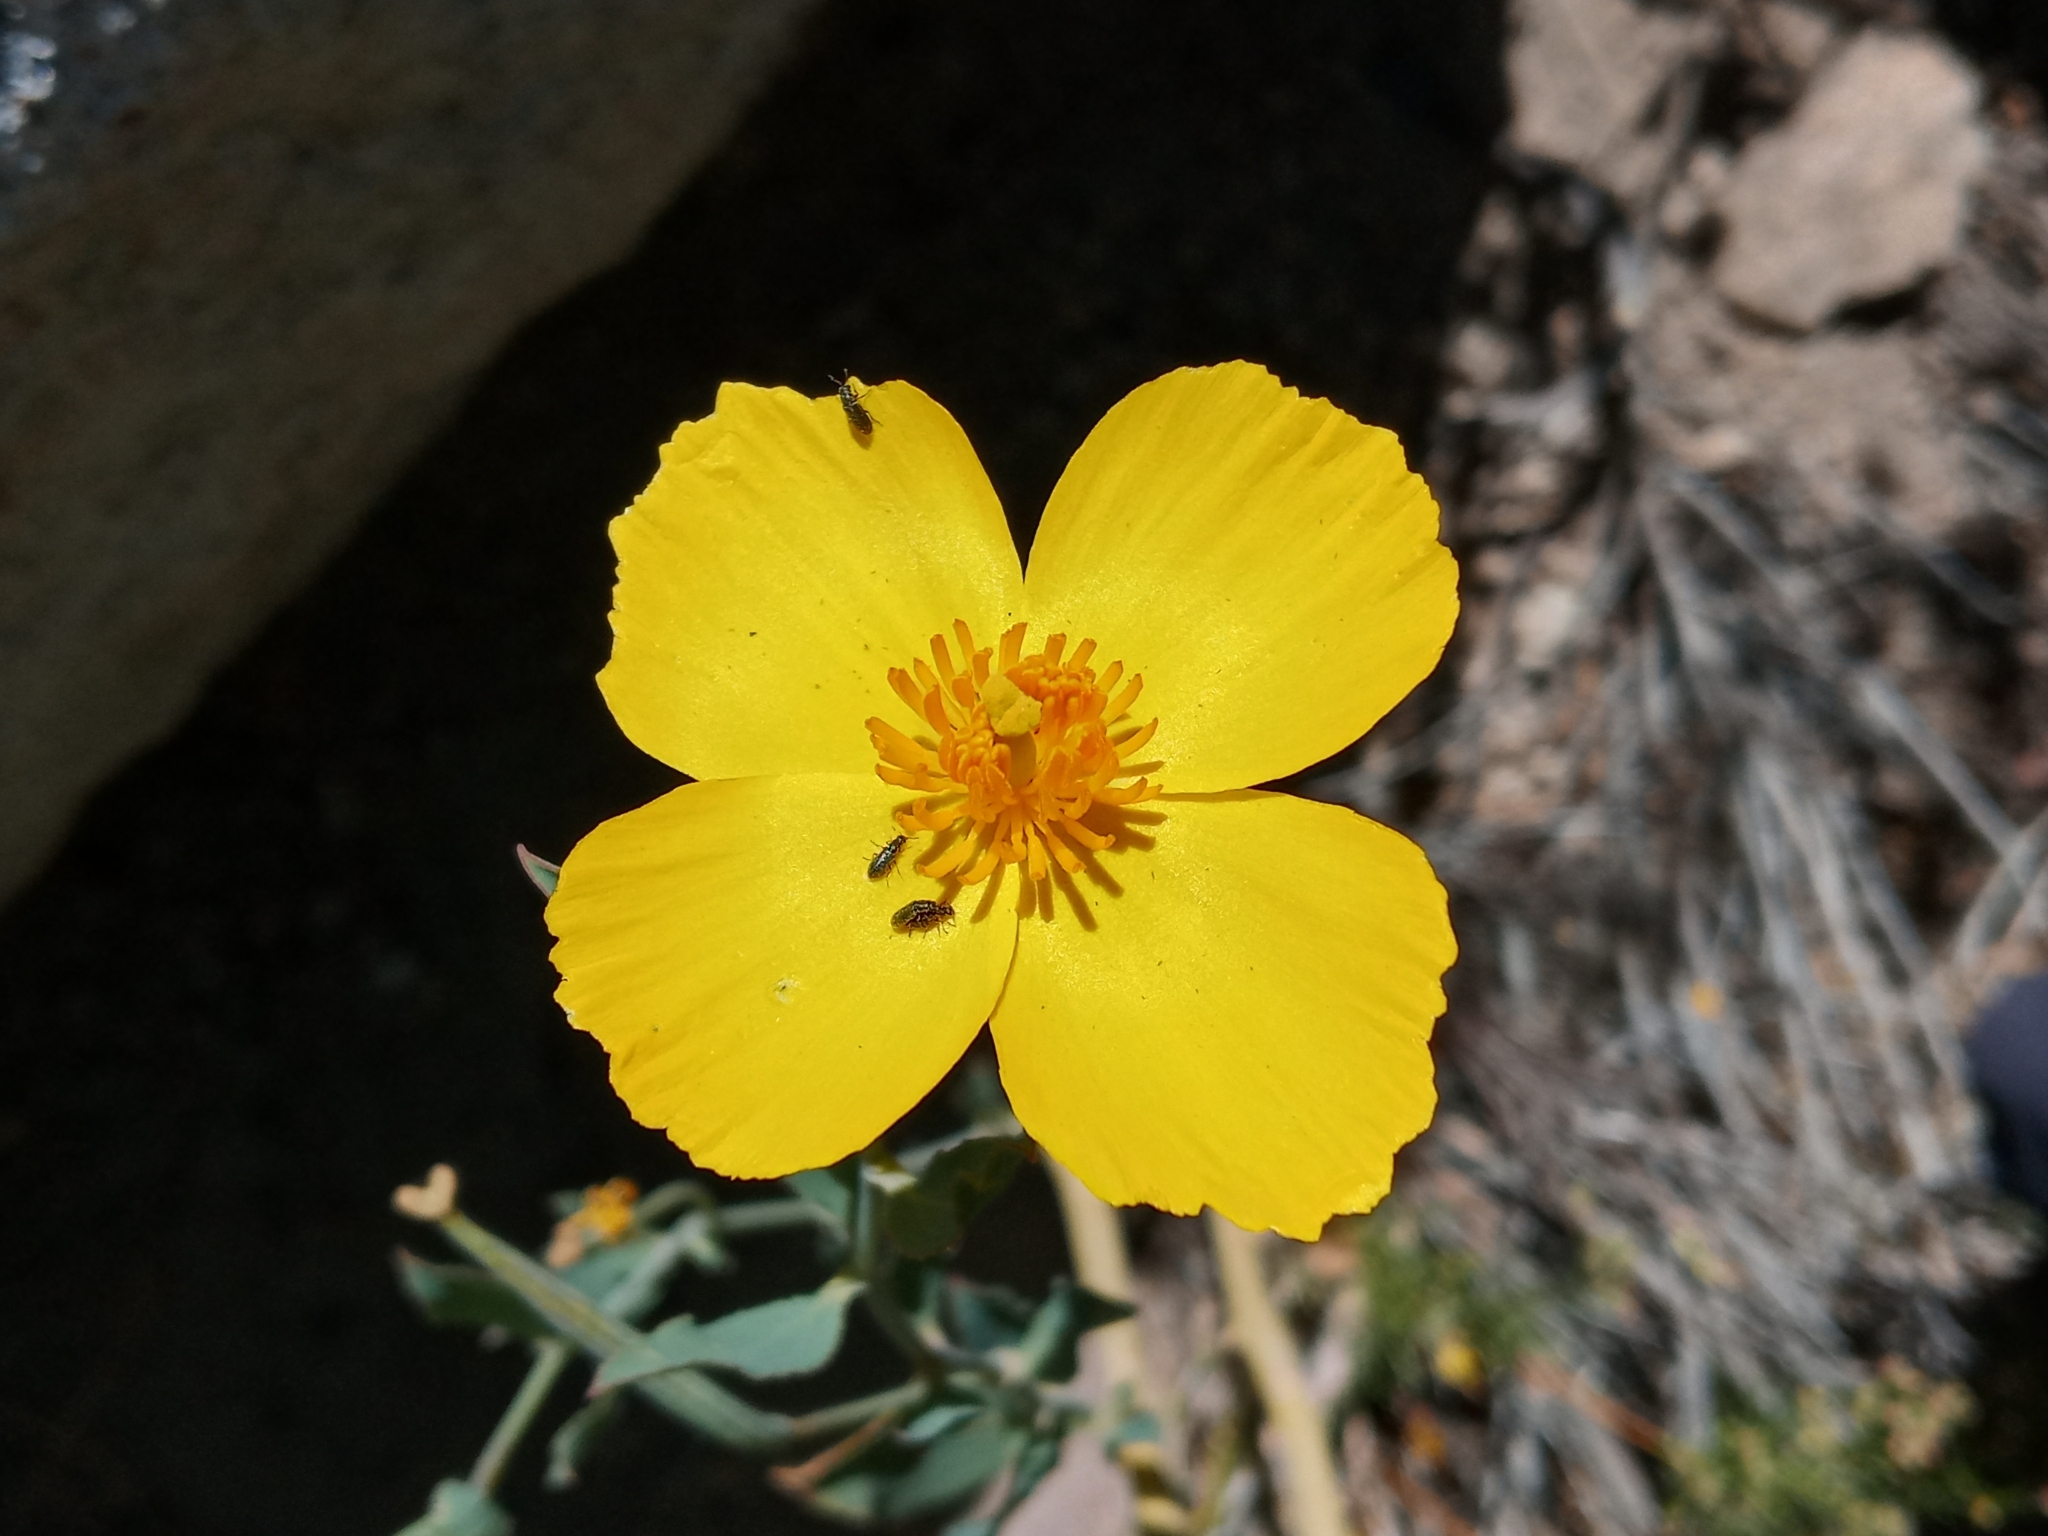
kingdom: Plantae
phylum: Tracheophyta
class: Magnoliopsida
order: Ranunculales
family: Papaveraceae
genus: Dendromecon
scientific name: Dendromecon rigida
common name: Tree poppy
